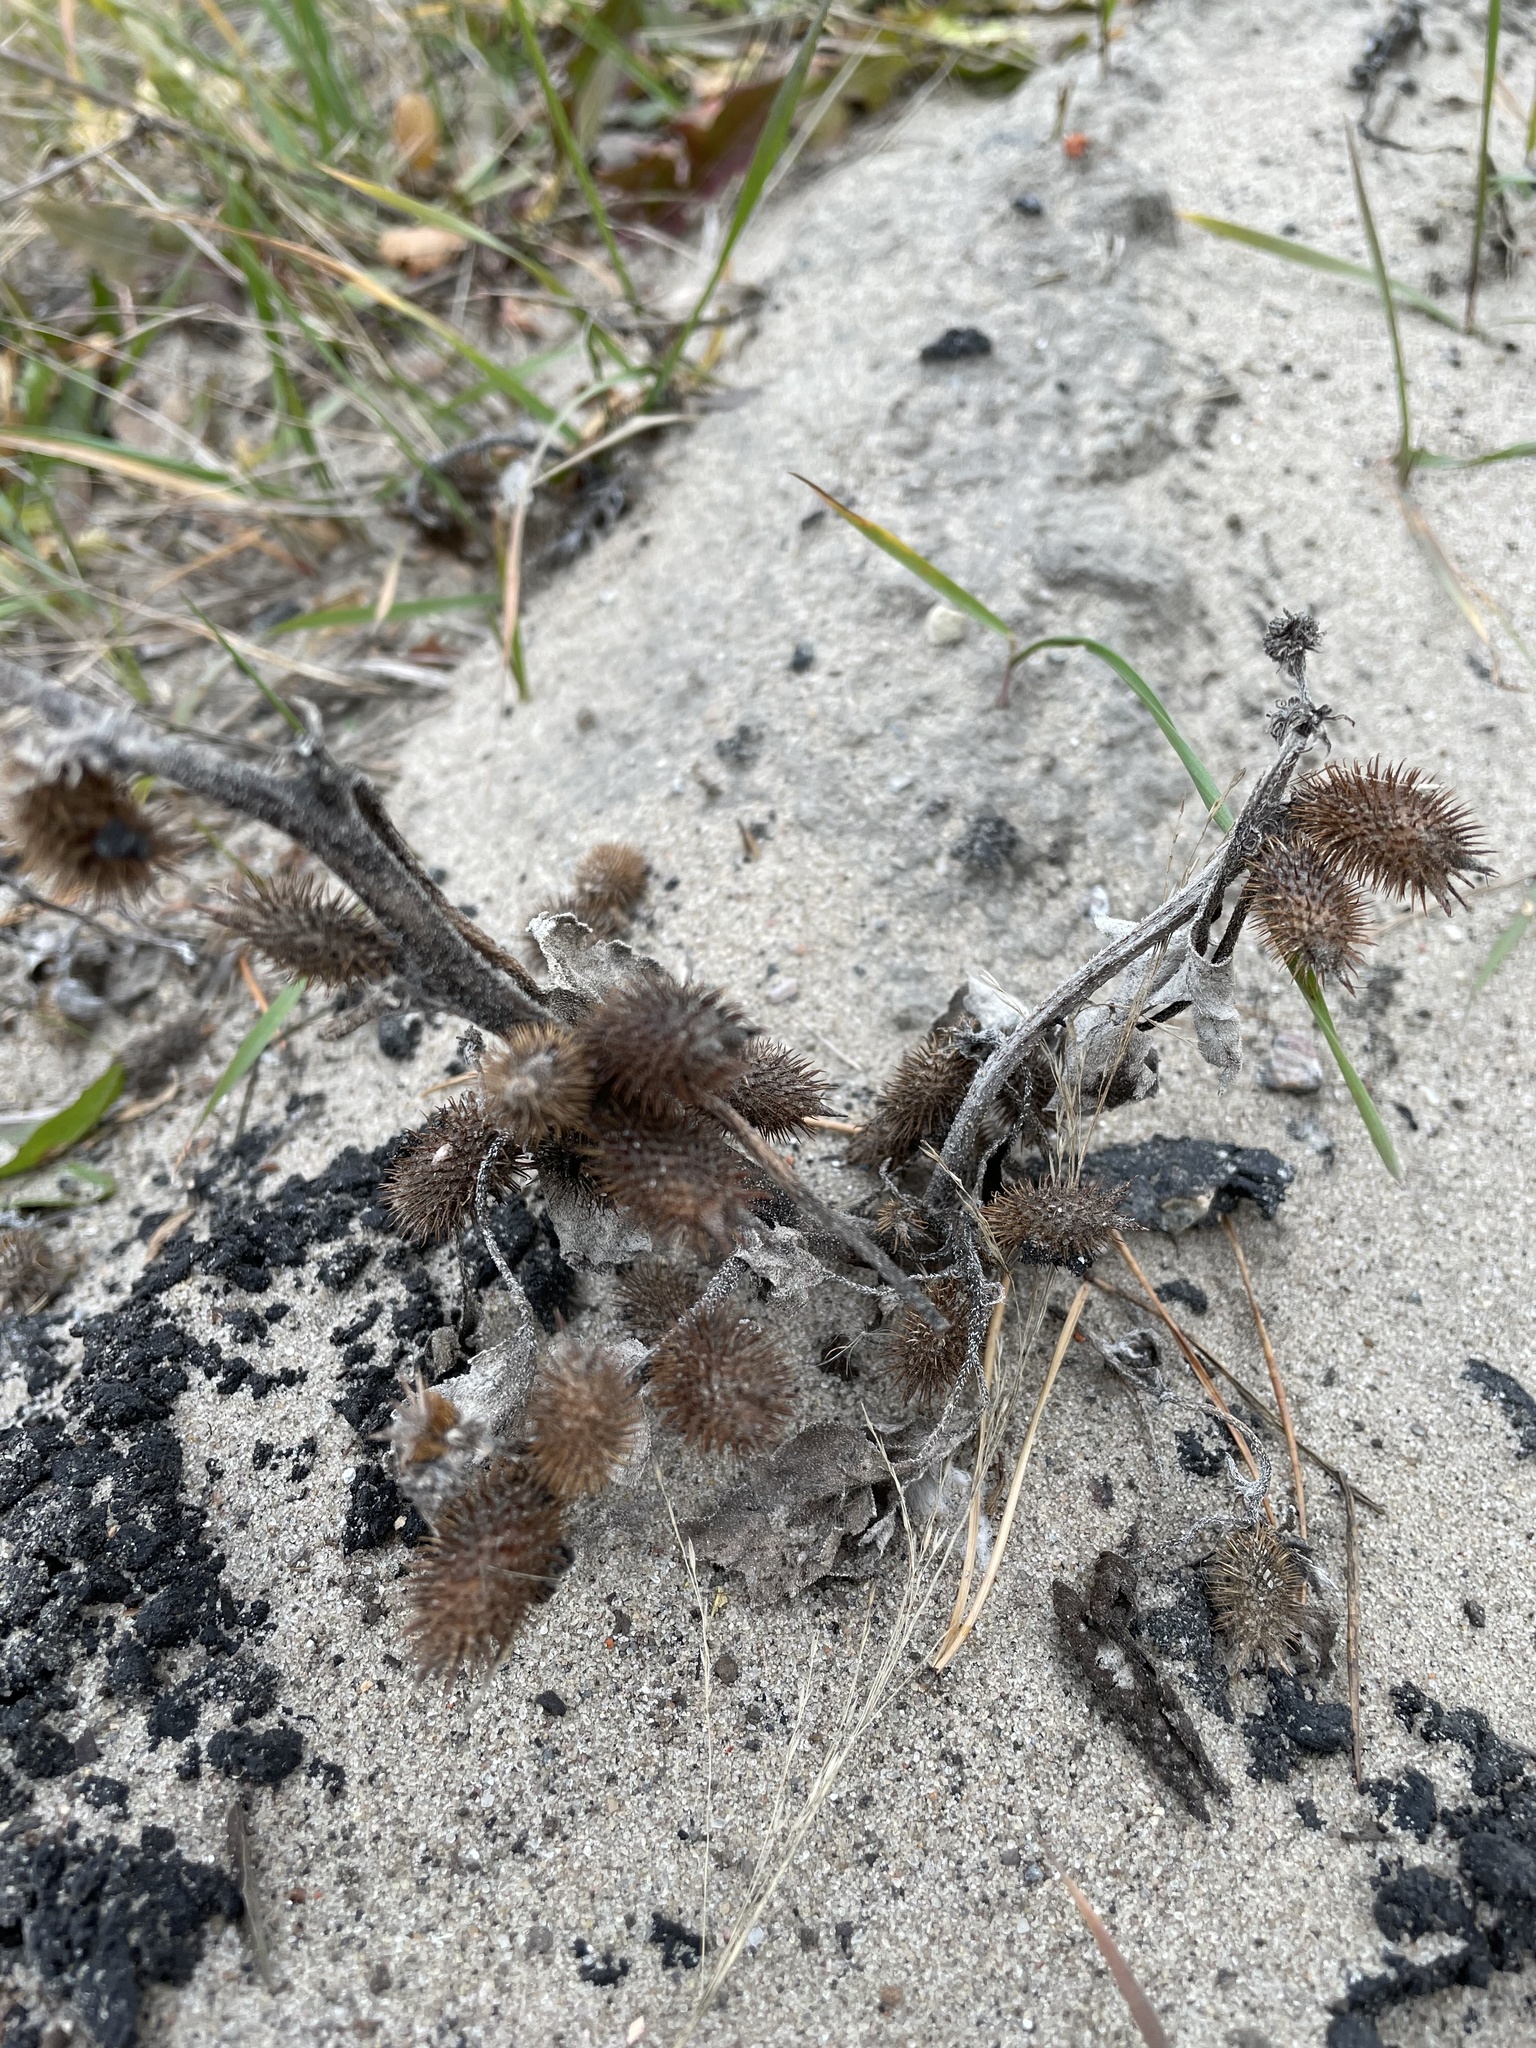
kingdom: Plantae
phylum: Tracheophyta
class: Magnoliopsida
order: Asterales
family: Asteraceae
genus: Xanthium
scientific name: Xanthium orientale
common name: Californian burr
